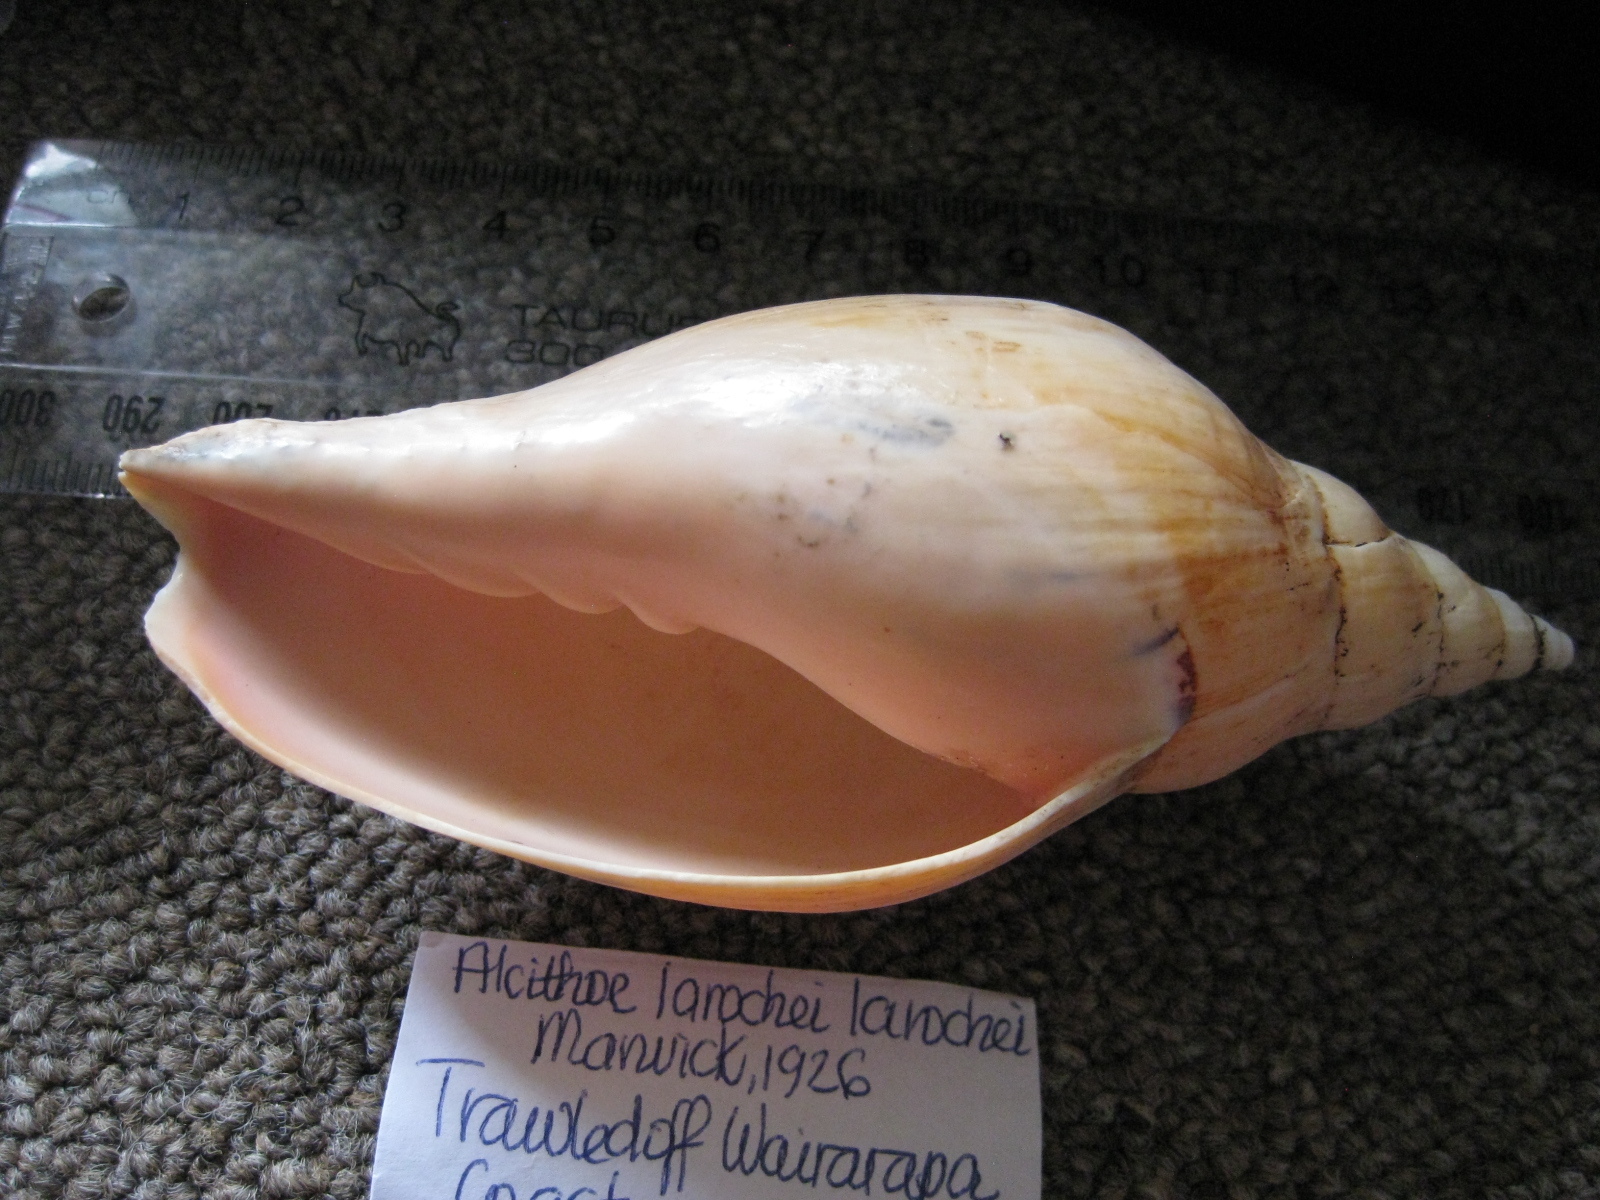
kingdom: Animalia
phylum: Mollusca
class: Gastropoda
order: Neogastropoda
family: Volutidae
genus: Alcithoe
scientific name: Alcithoe larochei
